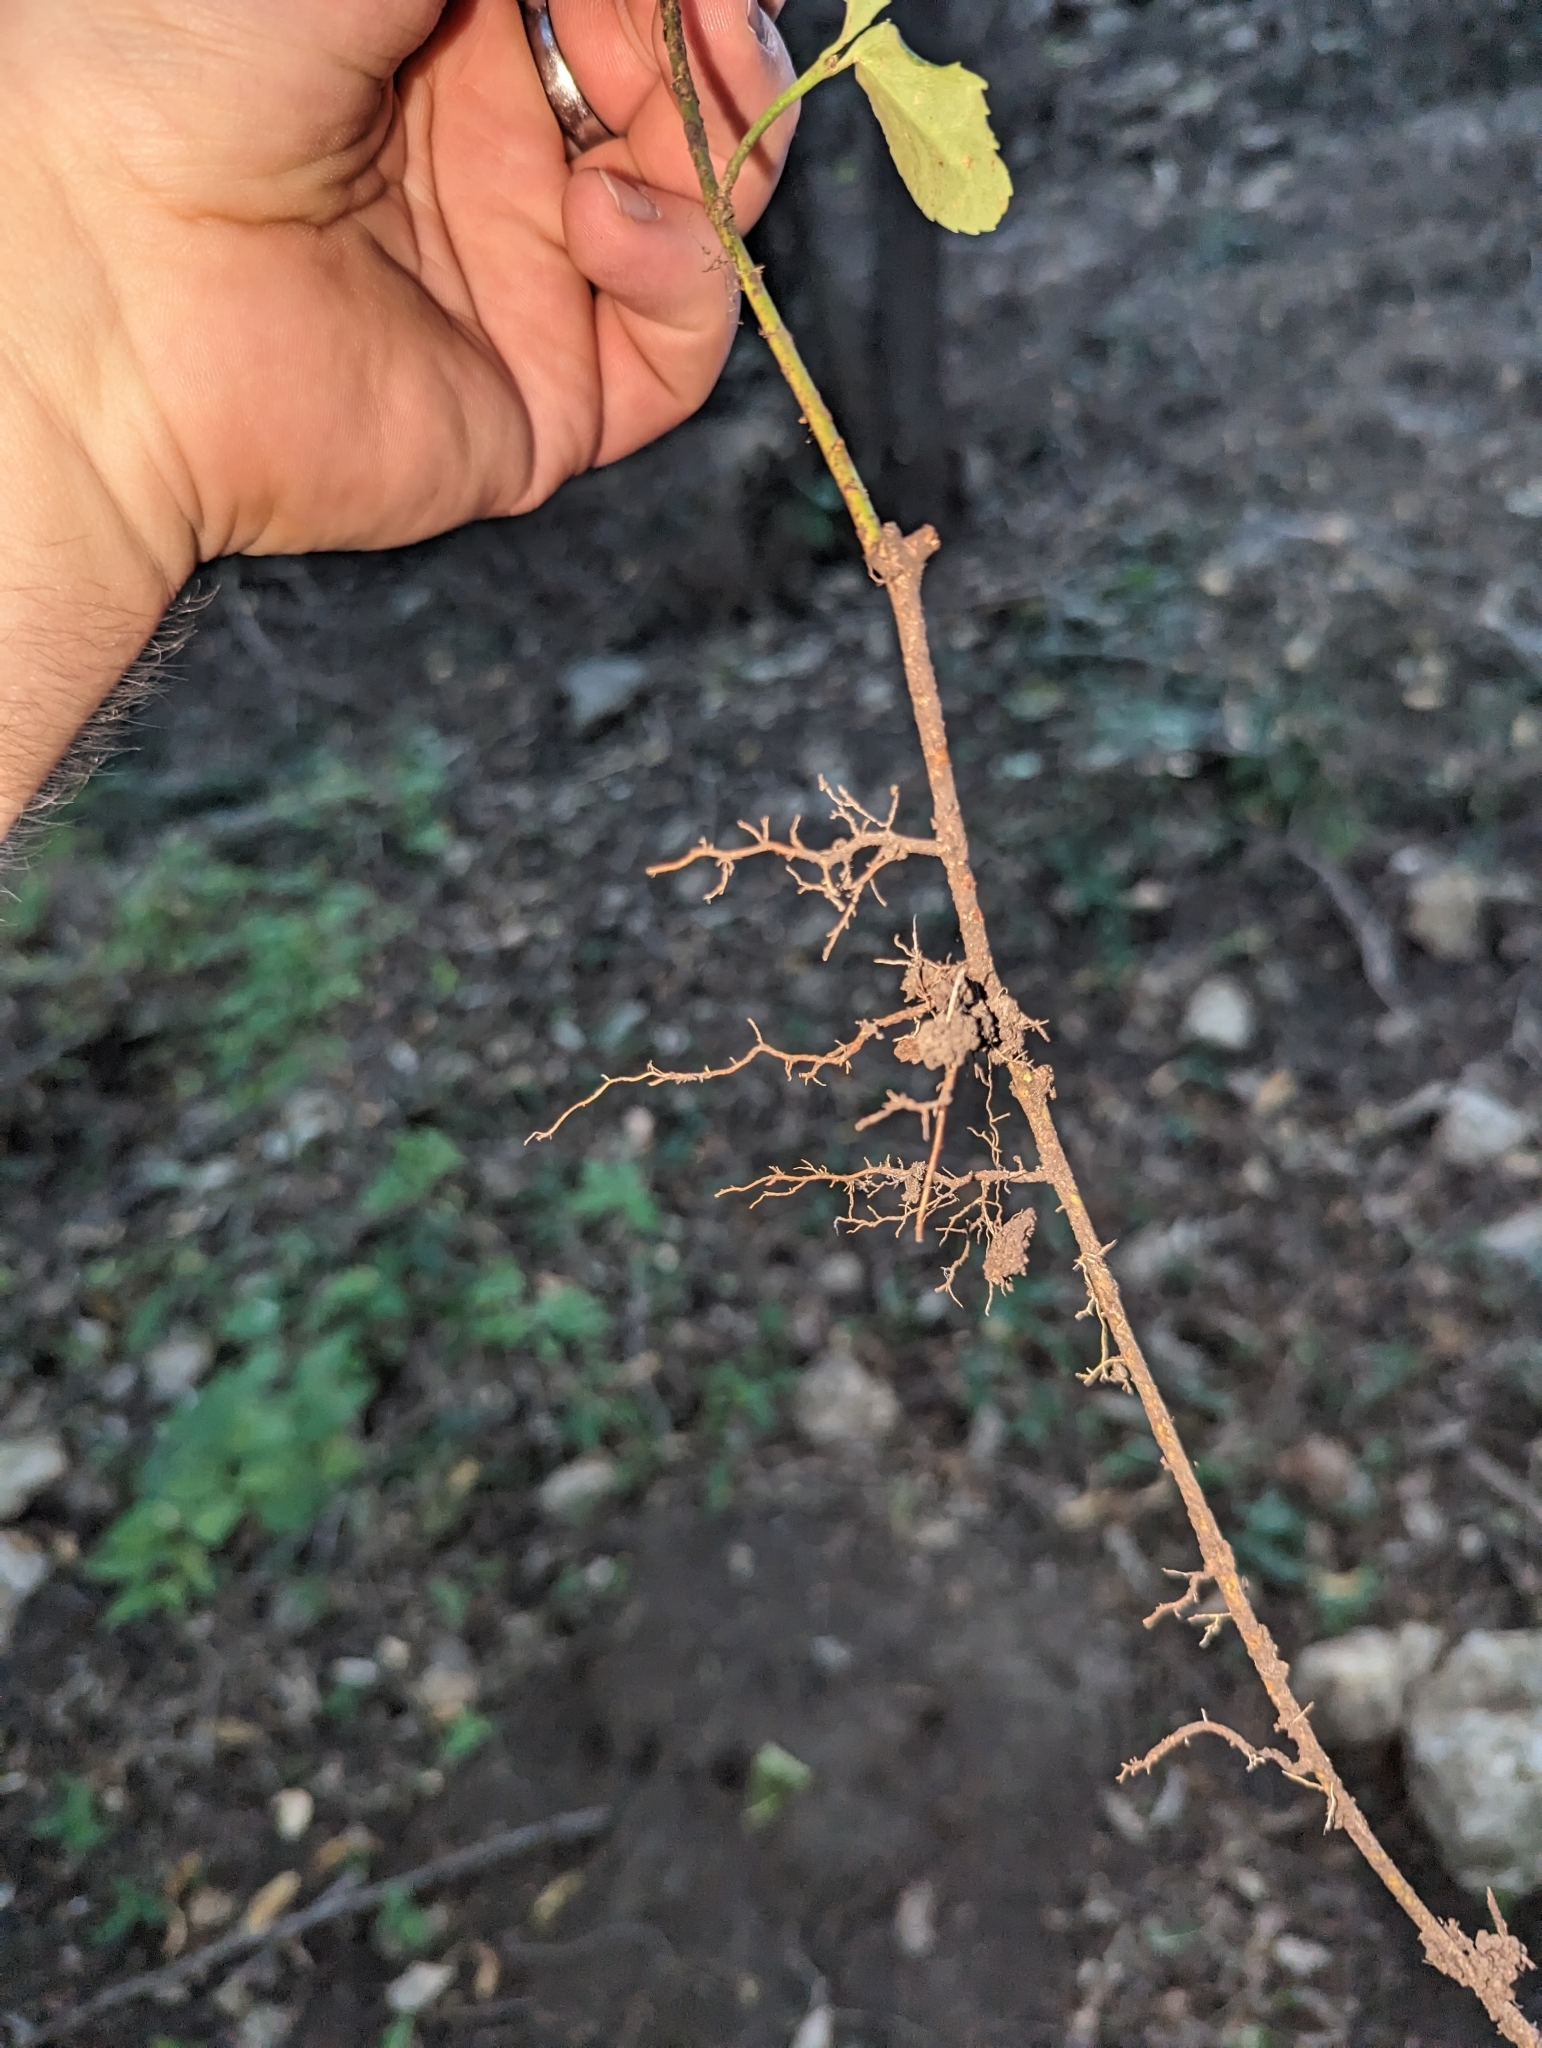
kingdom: Plantae
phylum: Tracheophyta
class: Magnoliopsida
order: Celastrales
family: Celastraceae
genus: Euonymus
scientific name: Euonymus fortunei
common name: Climbing euonymus
